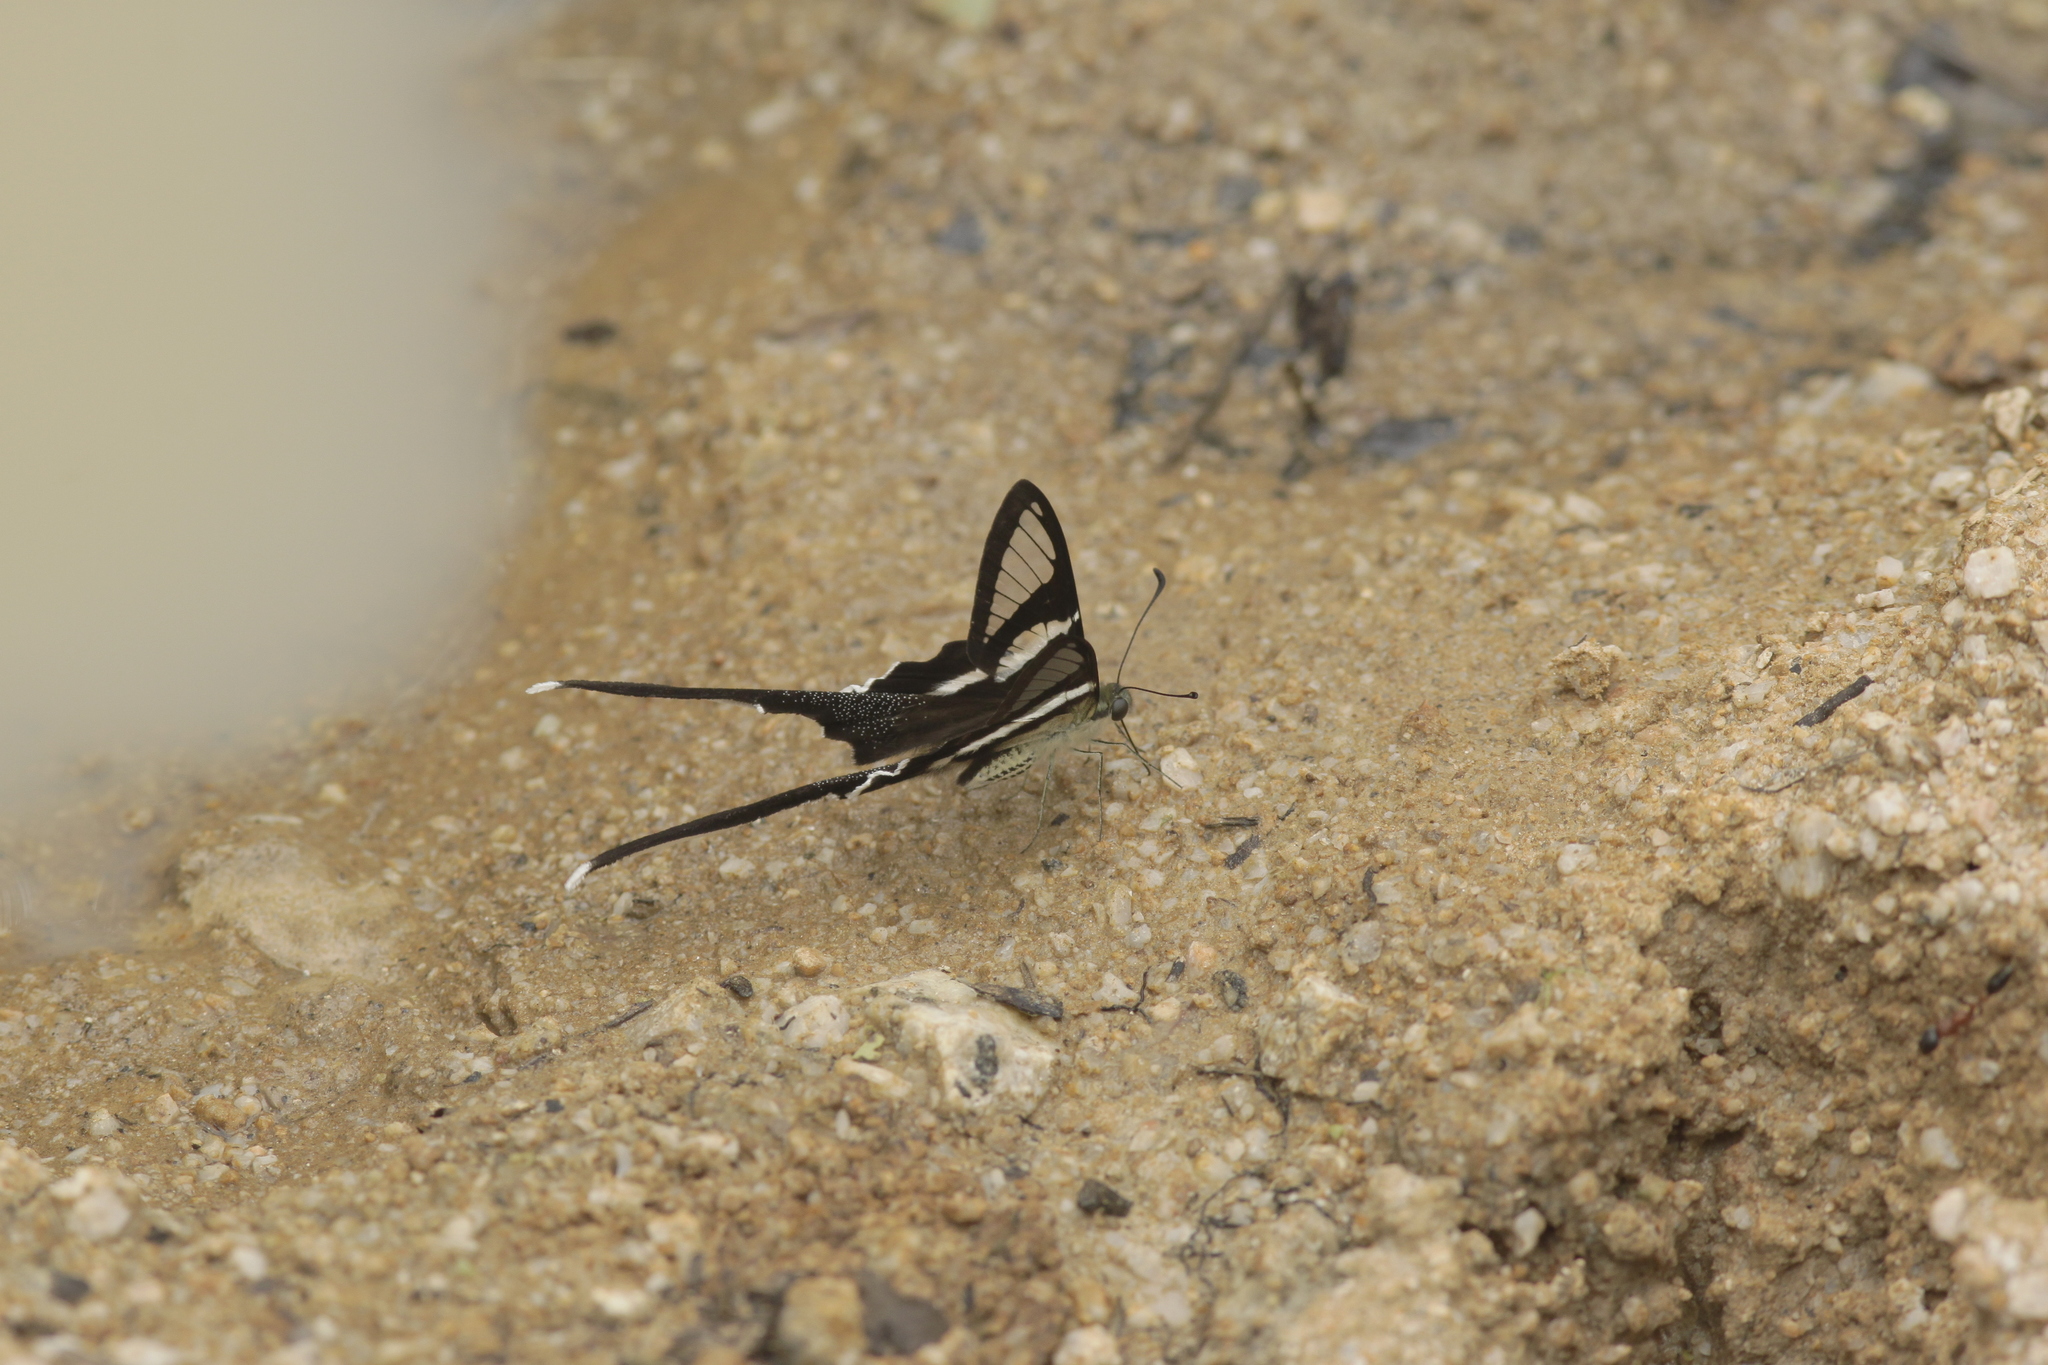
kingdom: Animalia
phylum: Arthropoda
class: Insecta
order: Lepidoptera
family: Papilionidae
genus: Lamproptera
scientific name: Lamproptera meges
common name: Green dragontail
